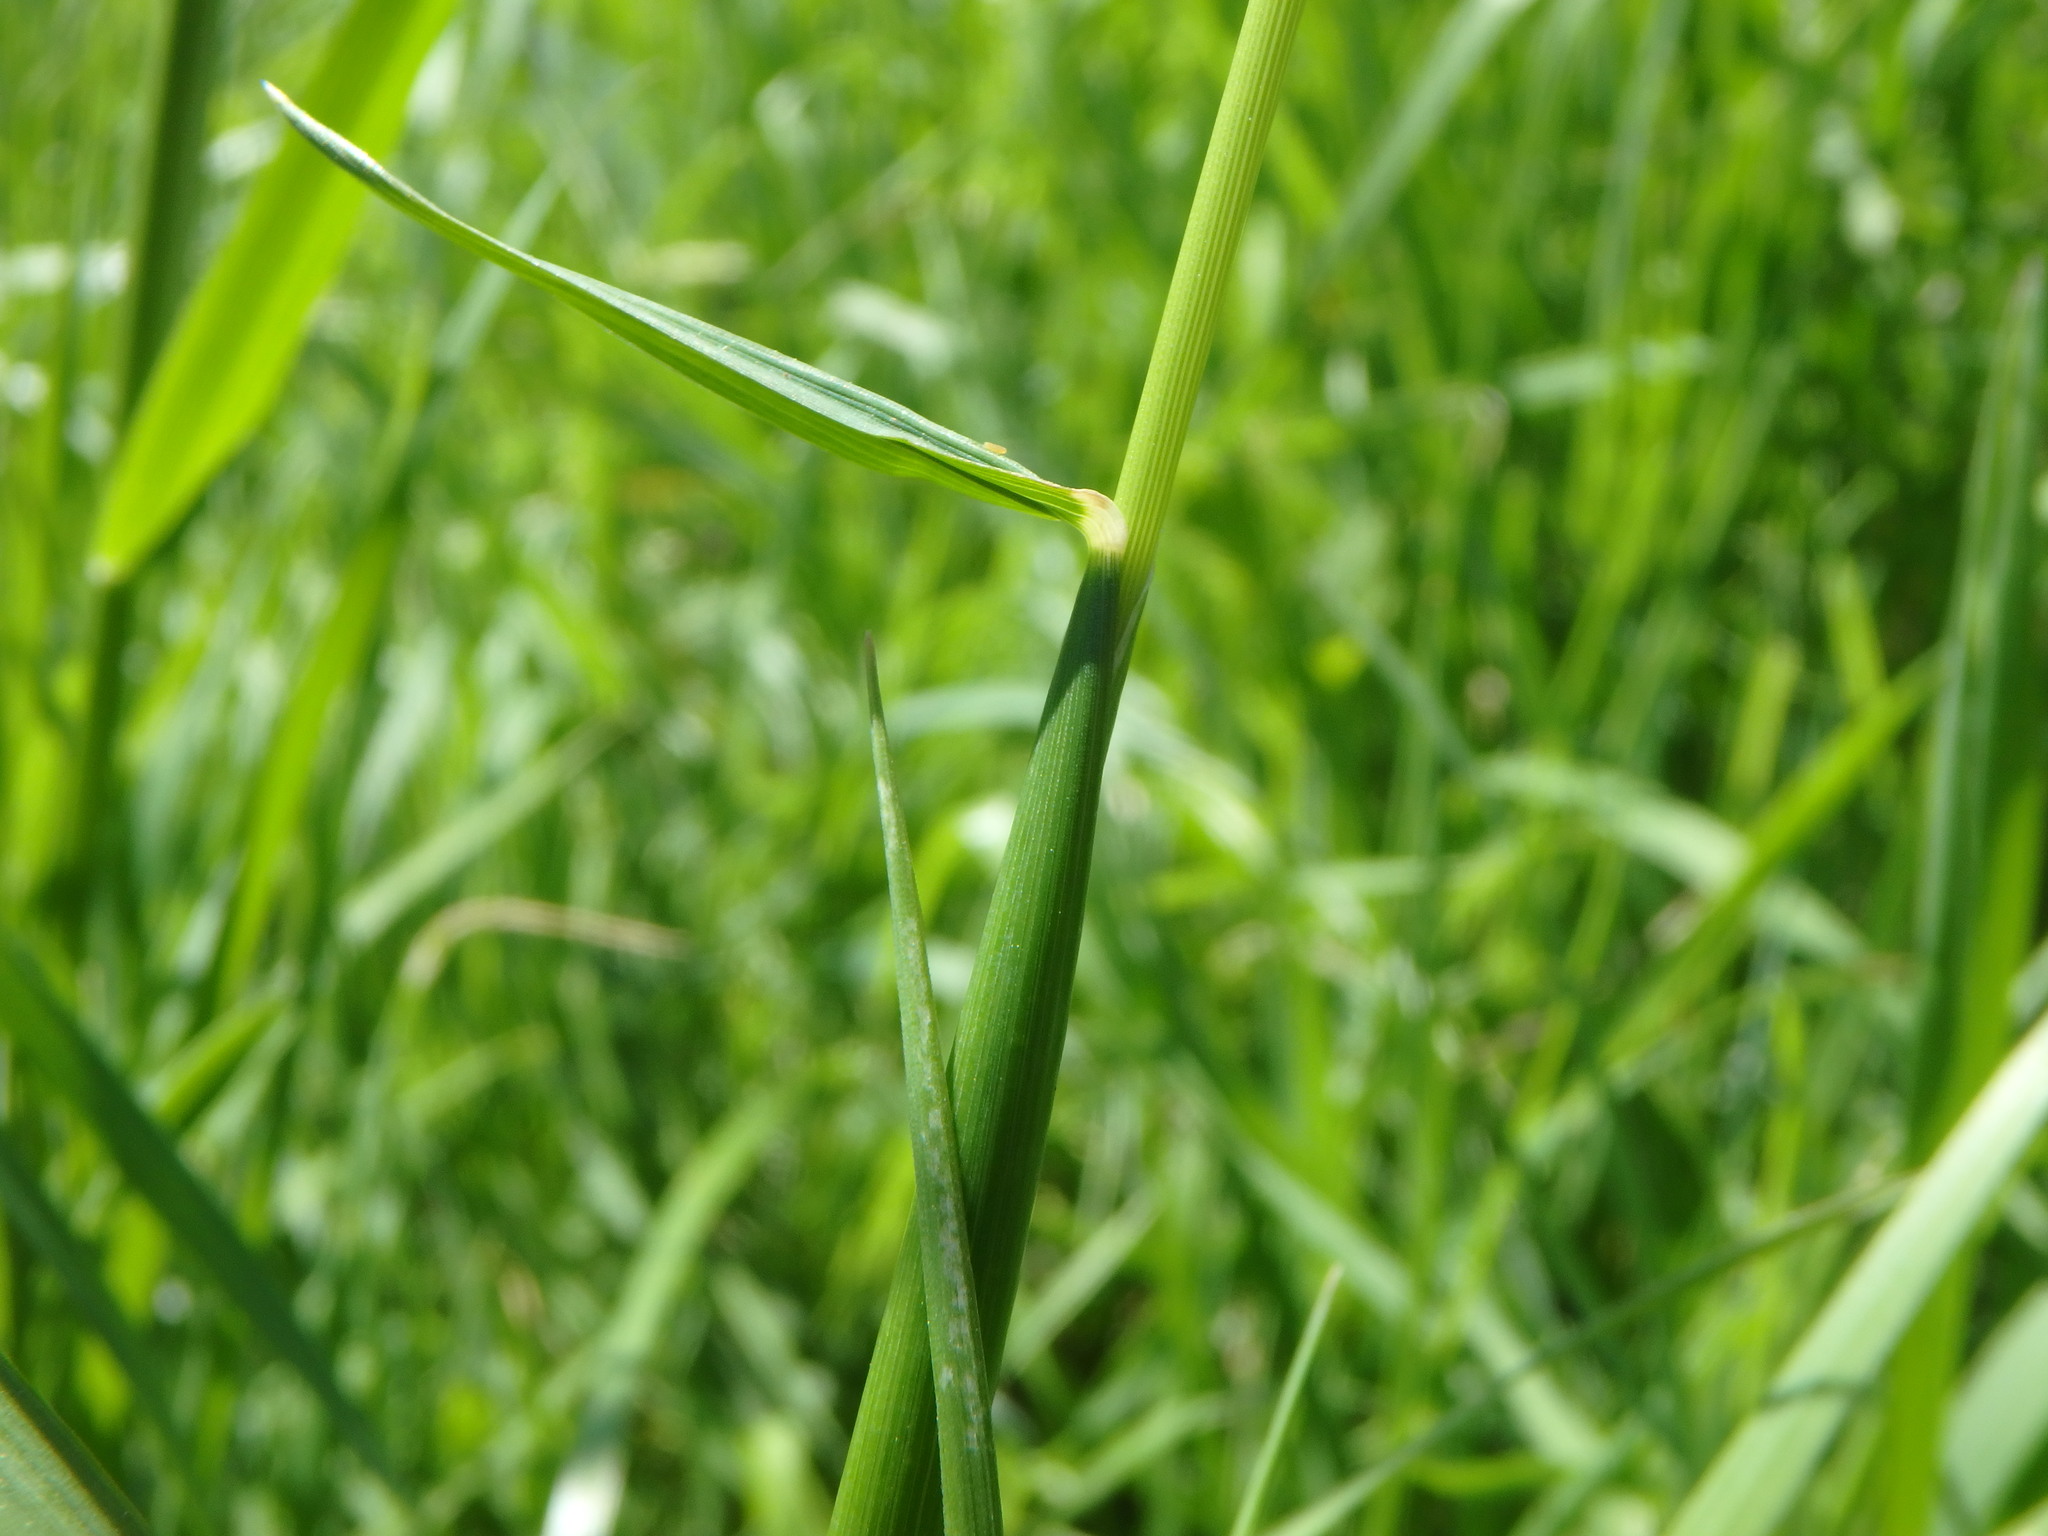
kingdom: Plantae
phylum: Tracheophyta
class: Liliopsida
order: Poales
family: Poaceae
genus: Alopecurus
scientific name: Alopecurus pratensis
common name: Meadow foxtail
